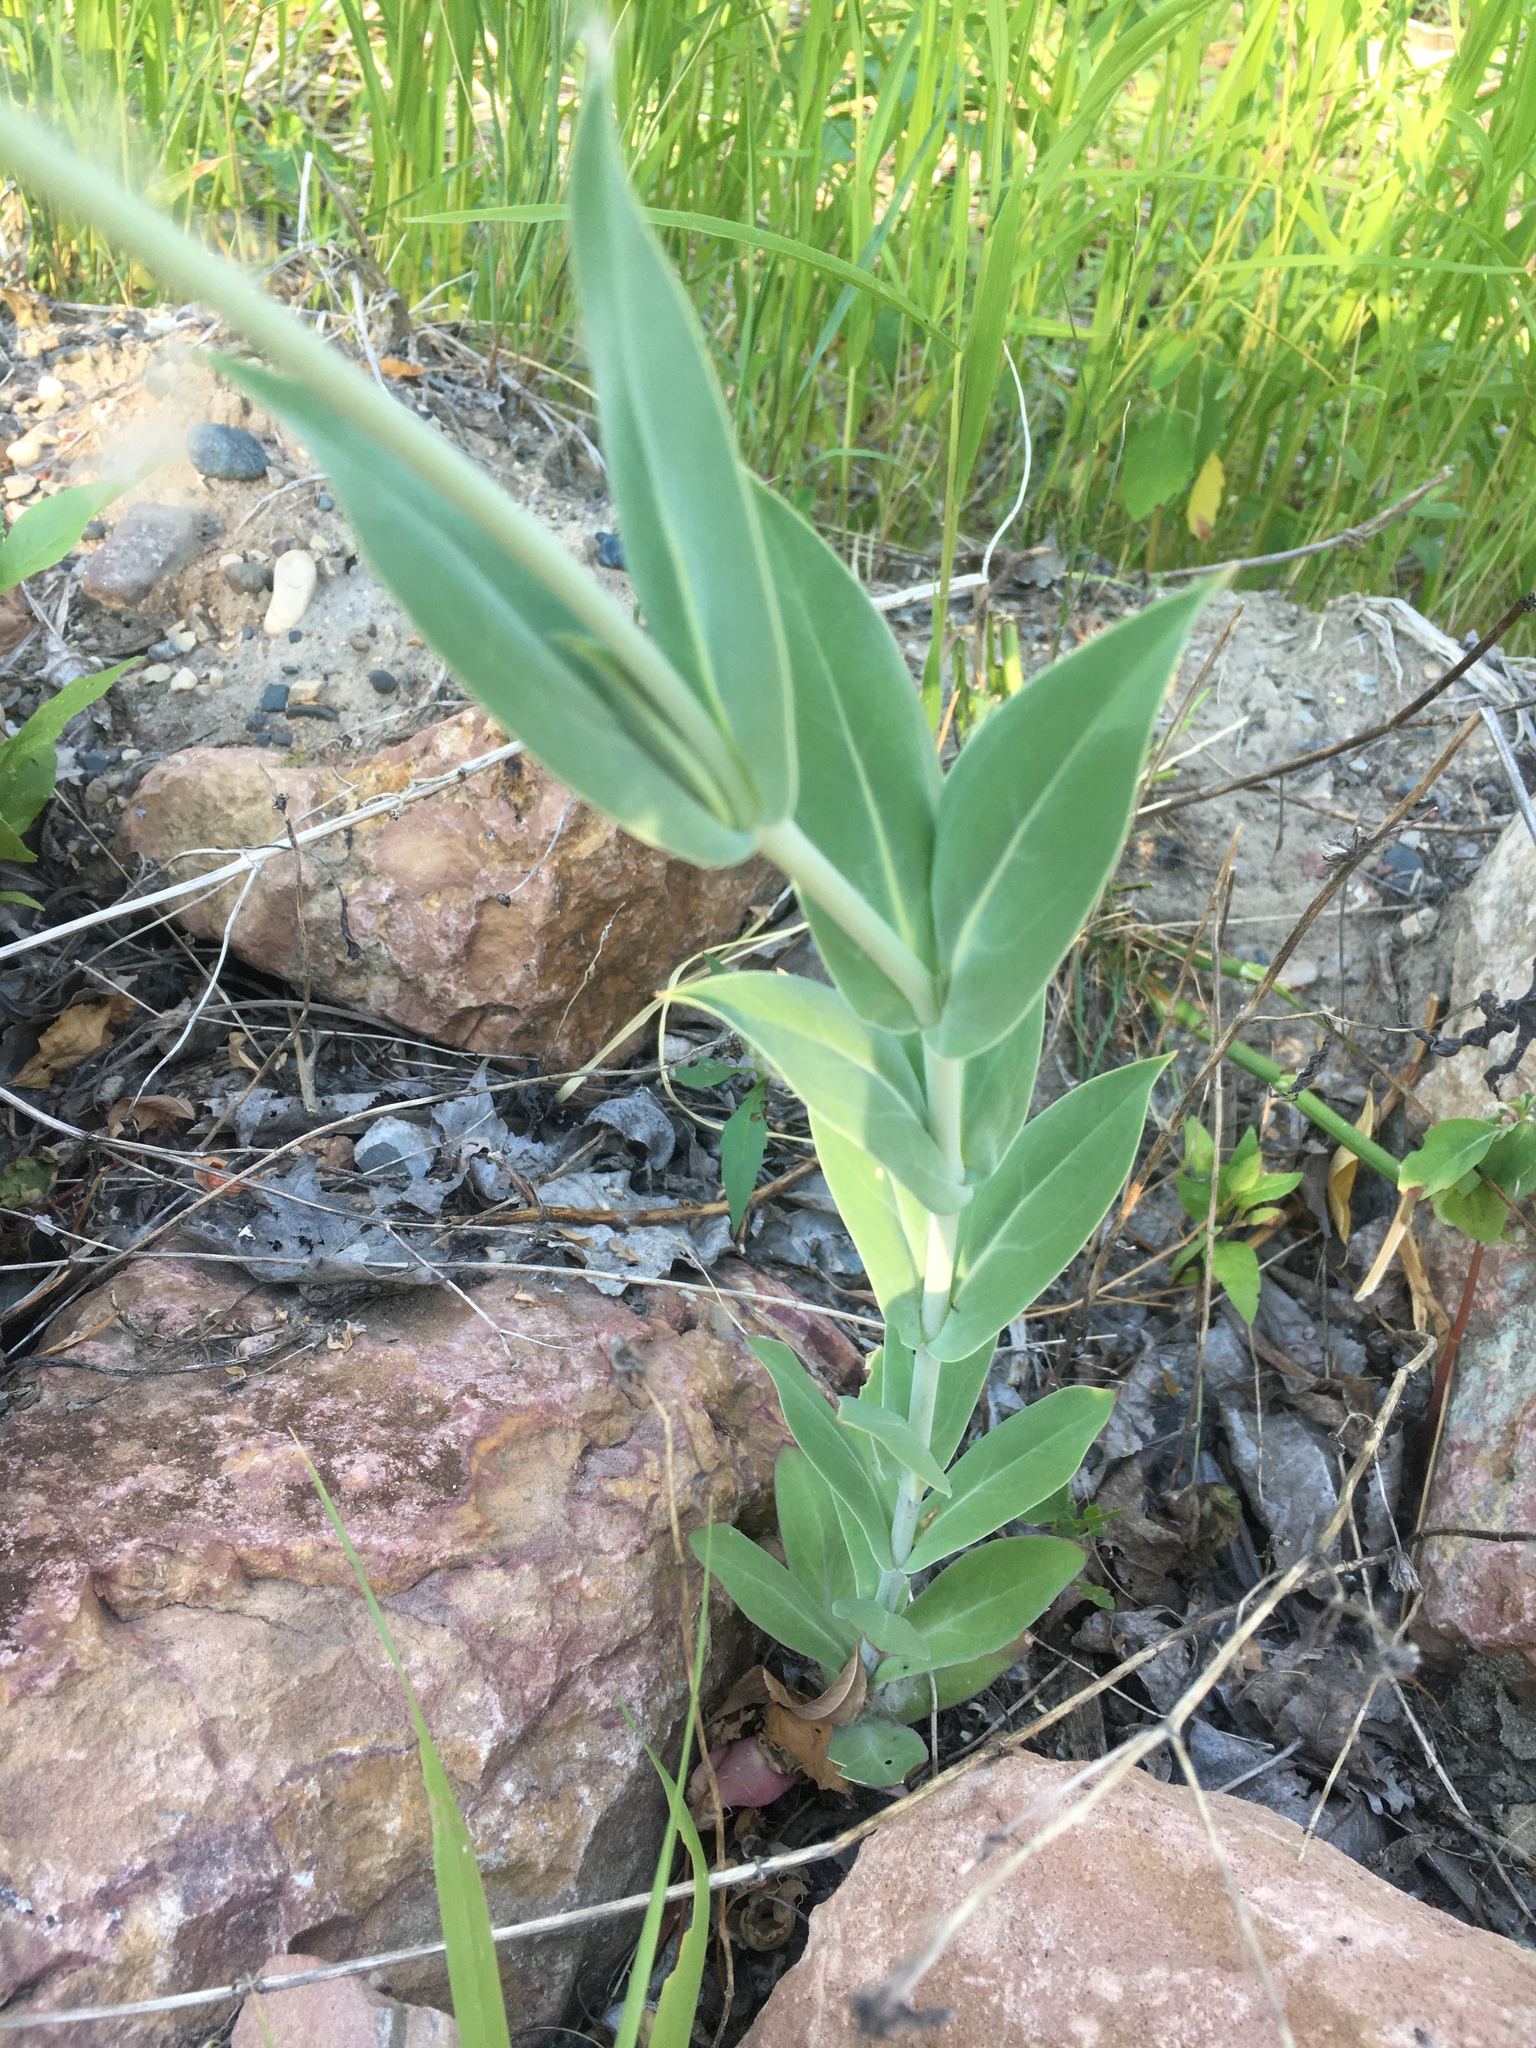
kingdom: Plantae
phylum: Tracheophyta
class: Magnoliopsida
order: Caryophyllales
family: Caryophyllaceae
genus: Silene
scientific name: Silene csereii
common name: Balkan catchfly
